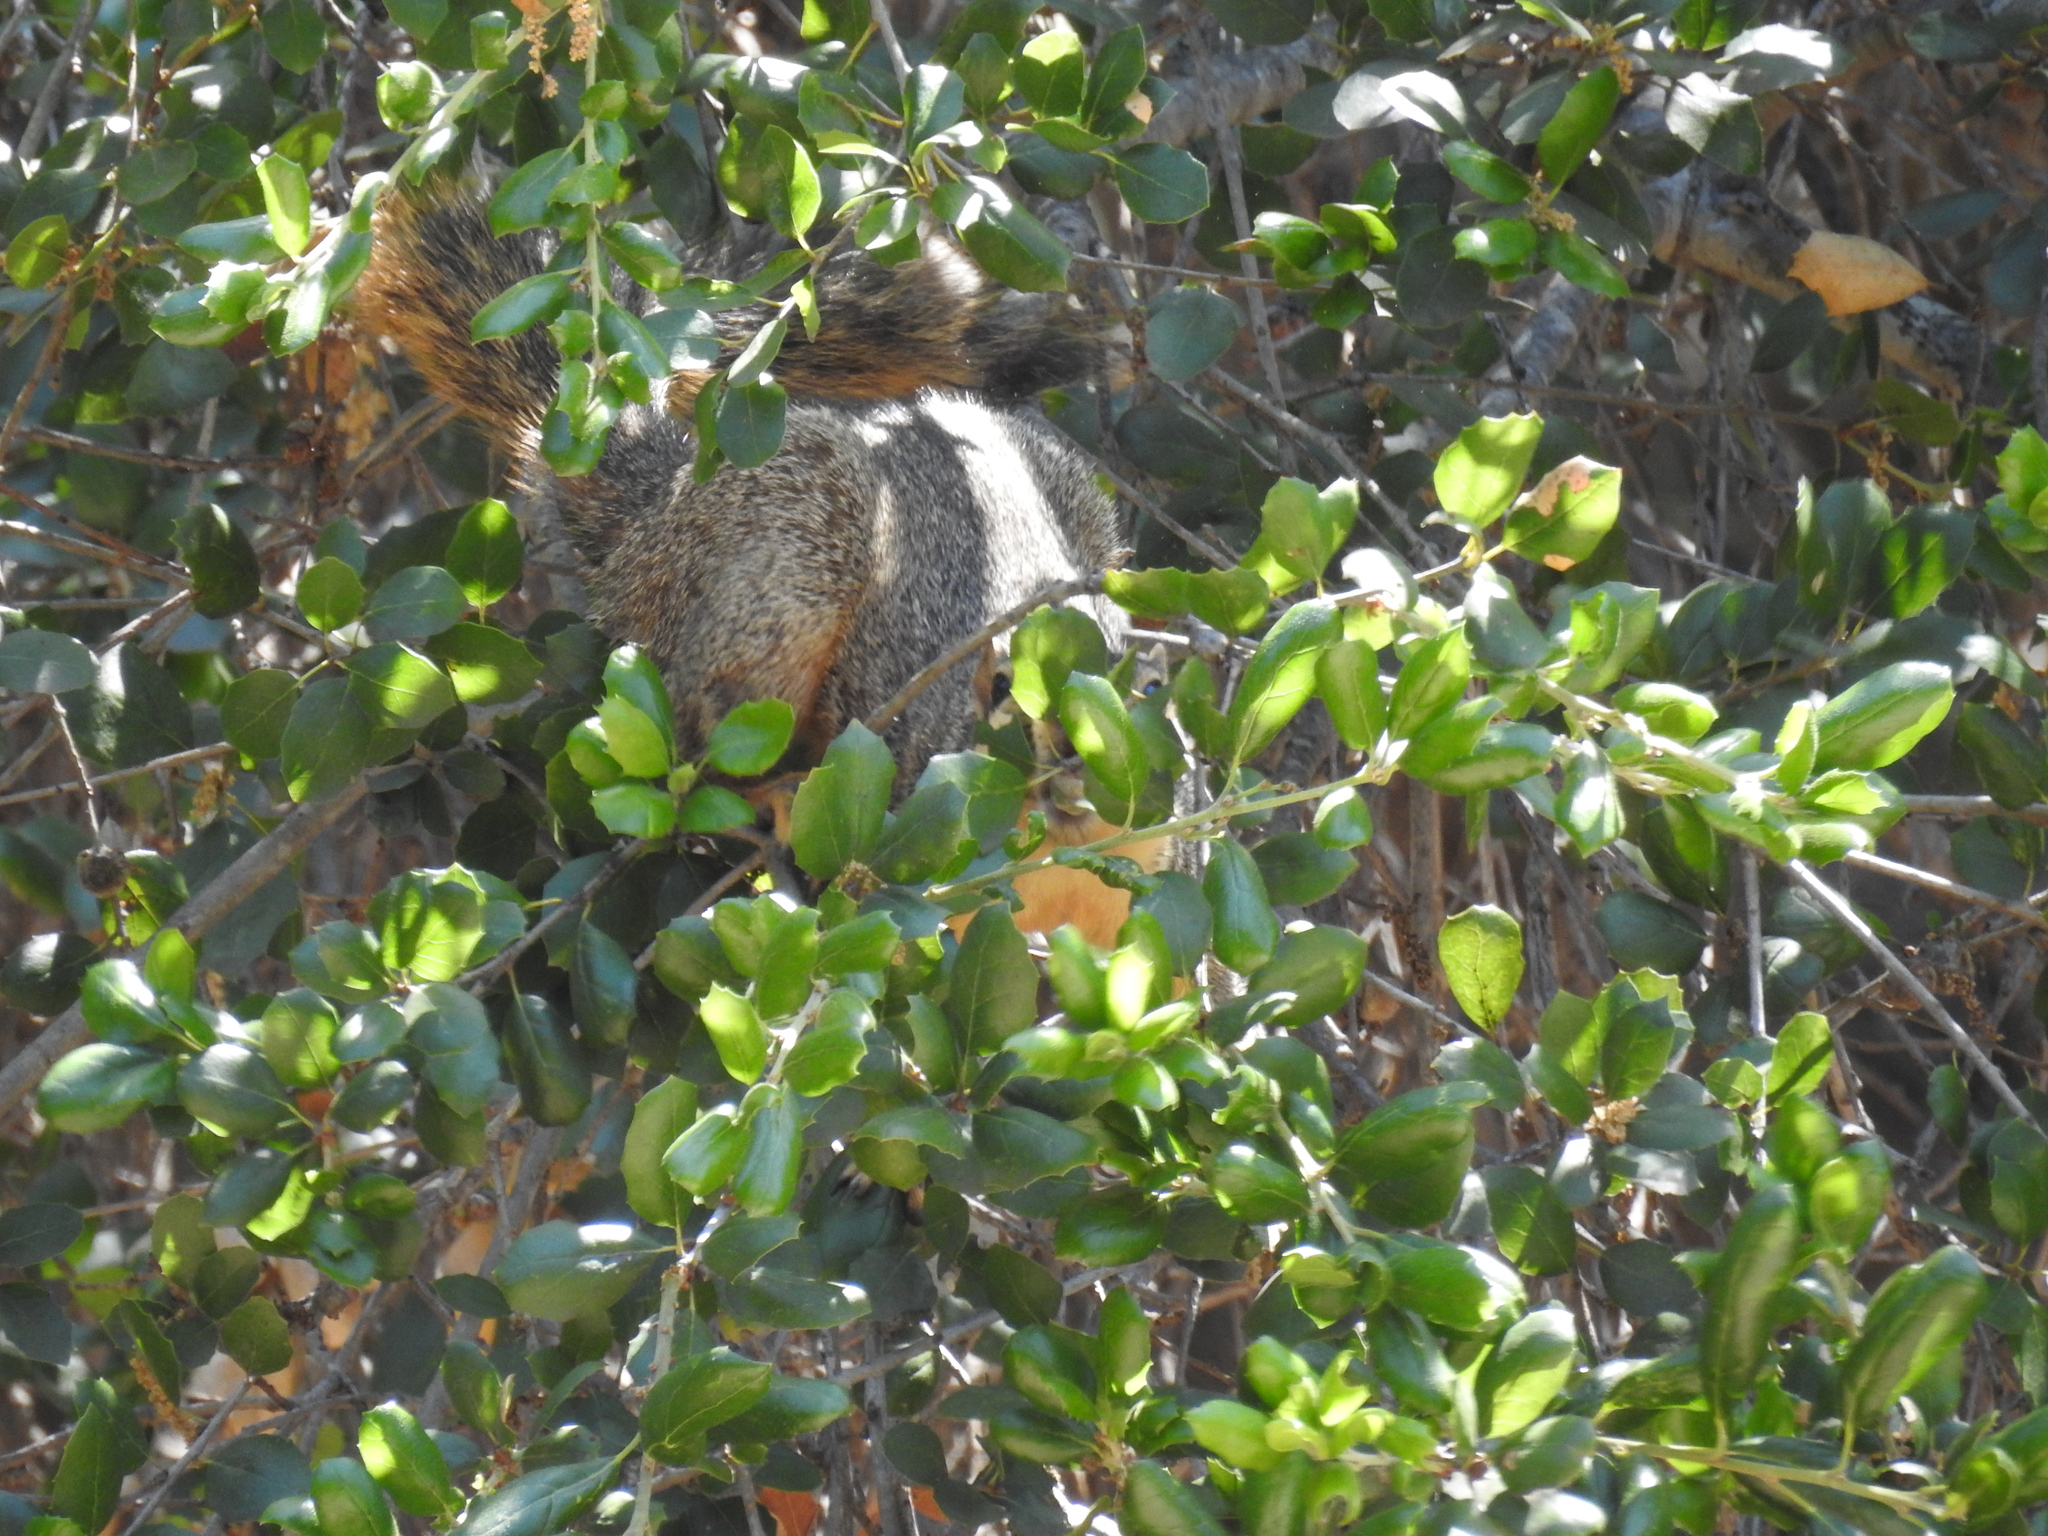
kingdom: Animalia
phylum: Chordata
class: Mammalia
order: Rodentia
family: Sciuridae
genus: Sciurus
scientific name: Sciurus niger
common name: Fox squirrel
